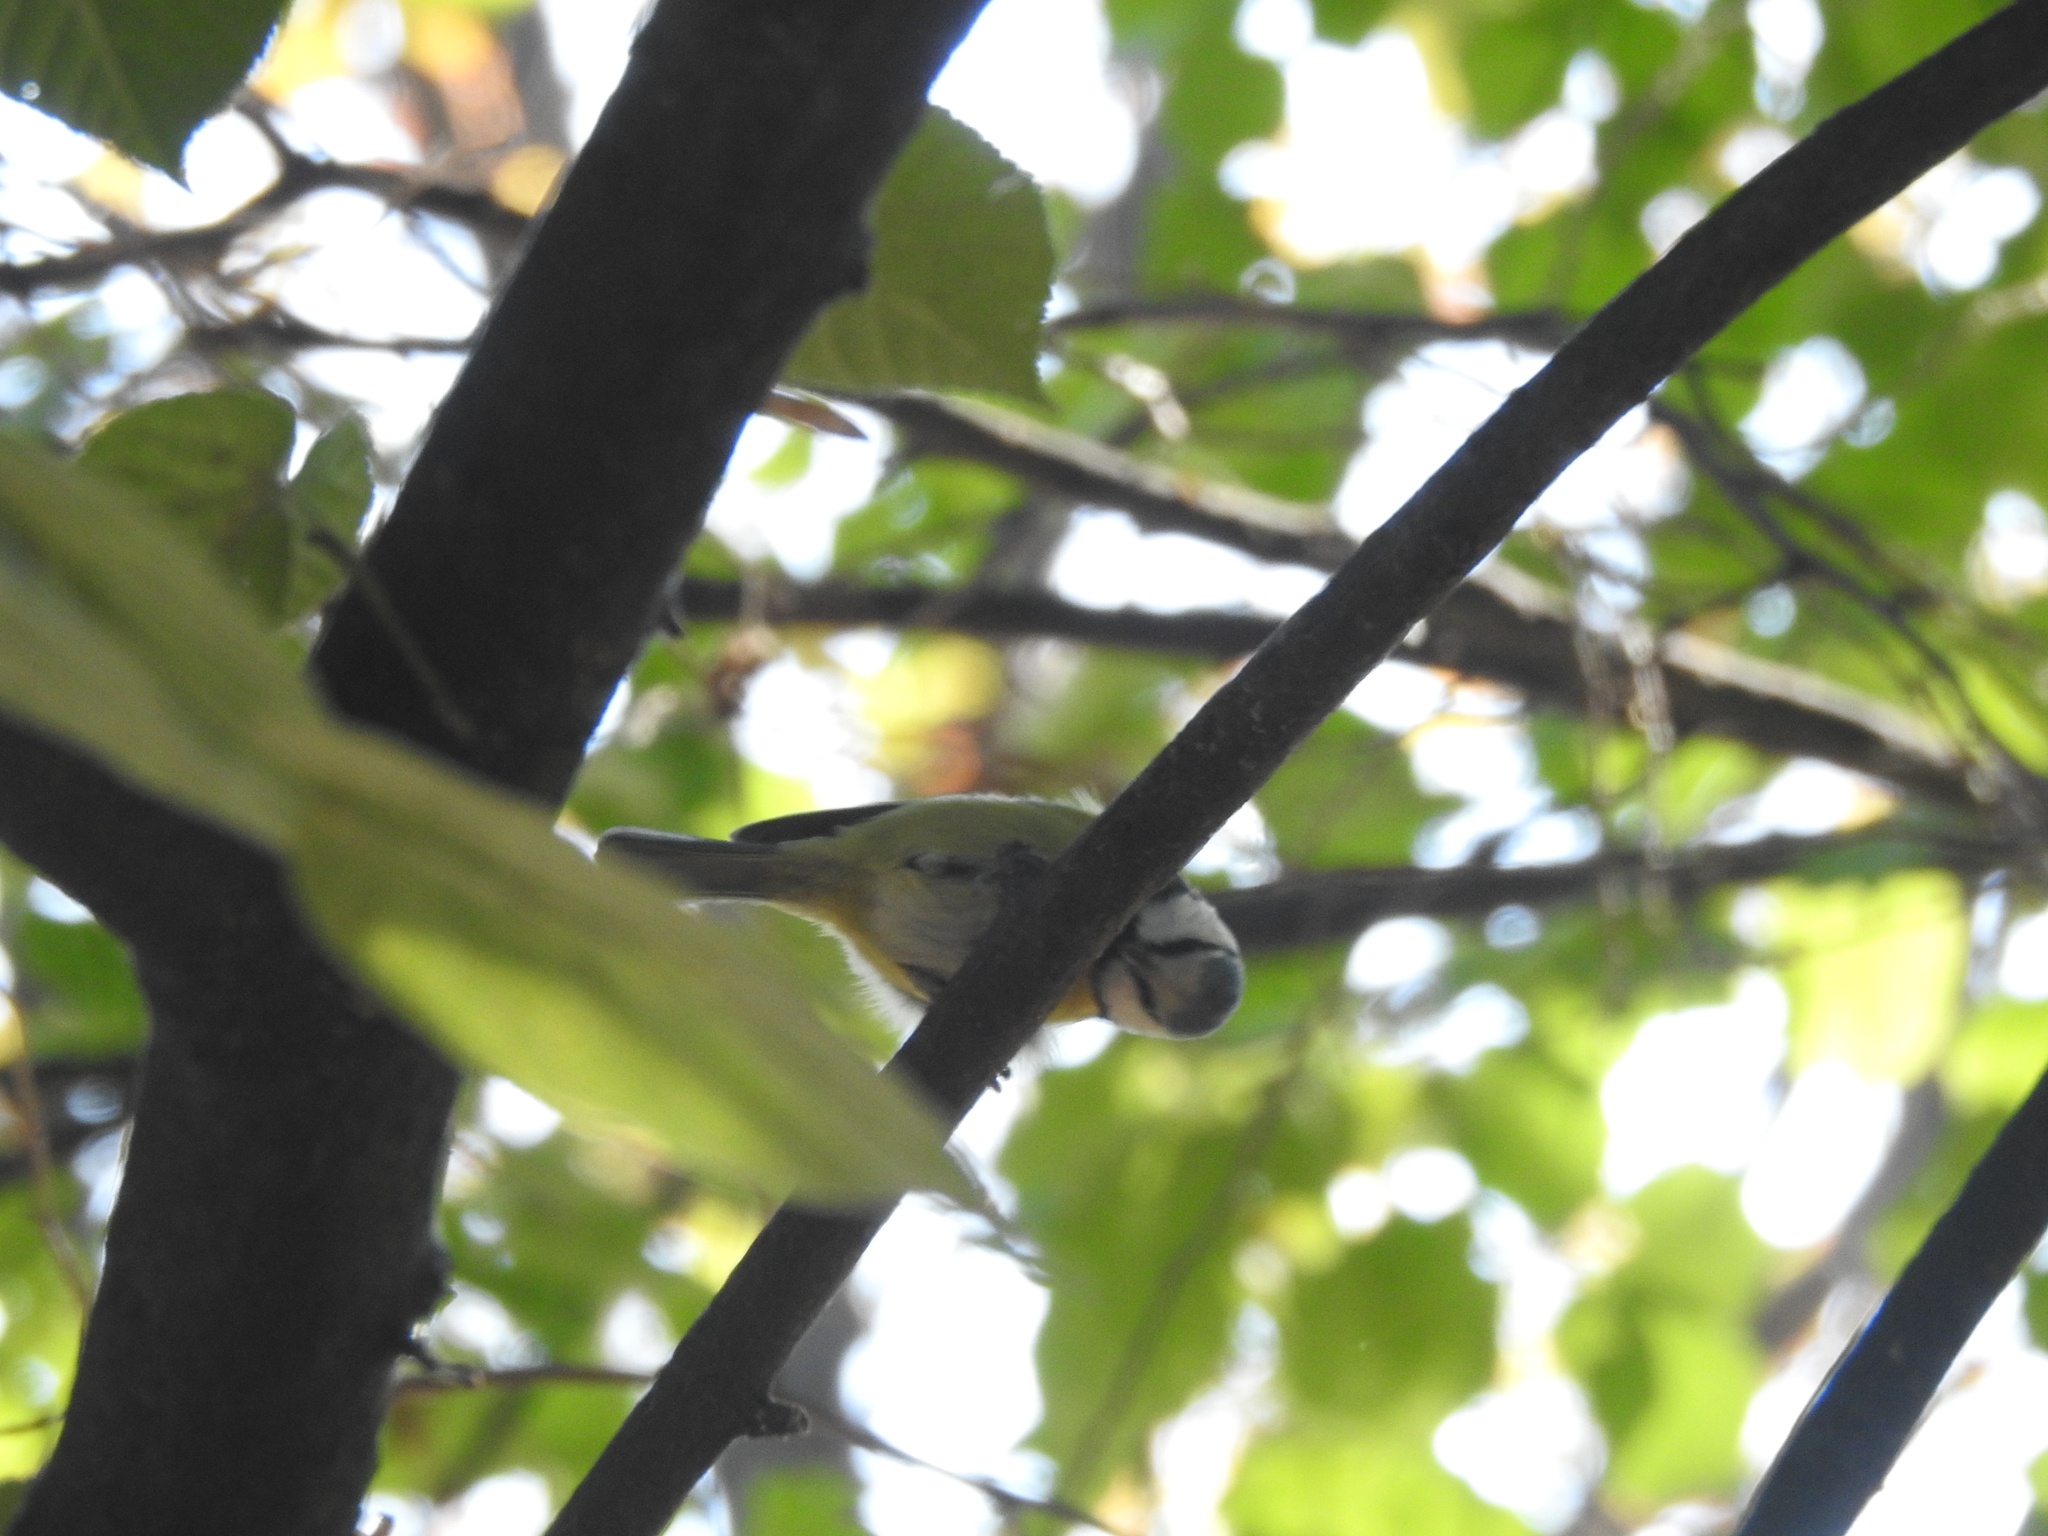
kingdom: Animalia
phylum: Chordata
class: Aves
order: Passeriformes
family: Paridae
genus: Cyanistes
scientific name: Cyanistes caeruleus
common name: Eurasian blue tit
